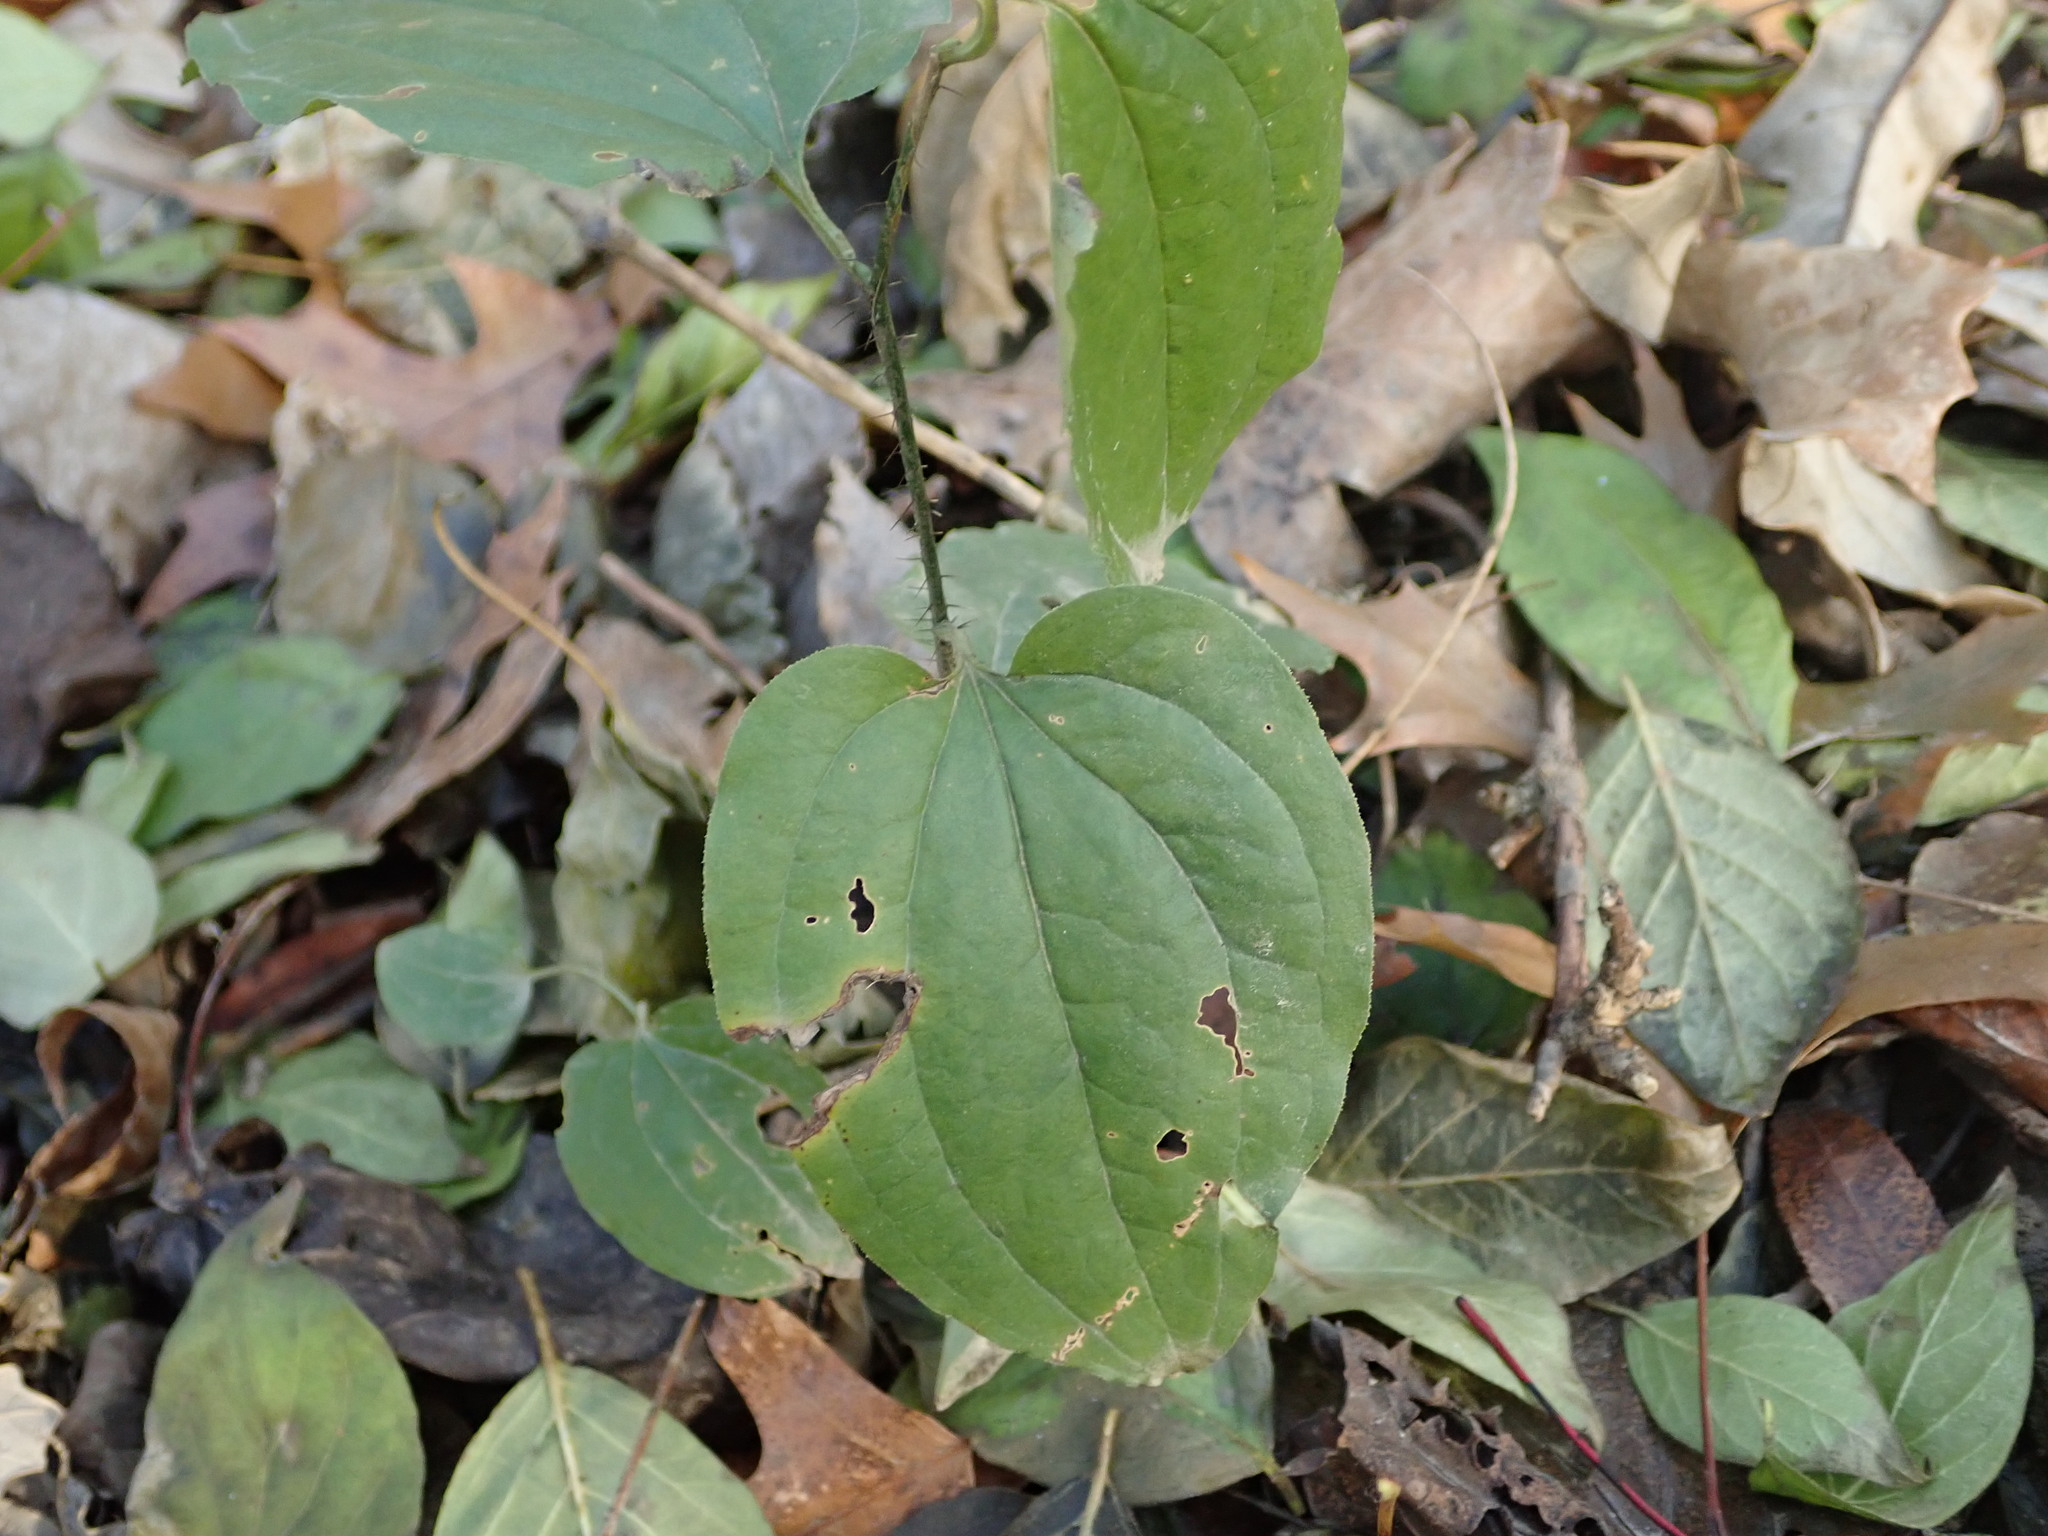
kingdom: Plantae
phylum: Tracheophyta
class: Liliopsida
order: Liliales
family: Smilacaceae
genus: Smilax
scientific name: Smilax tamnoides
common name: Hellfetter
